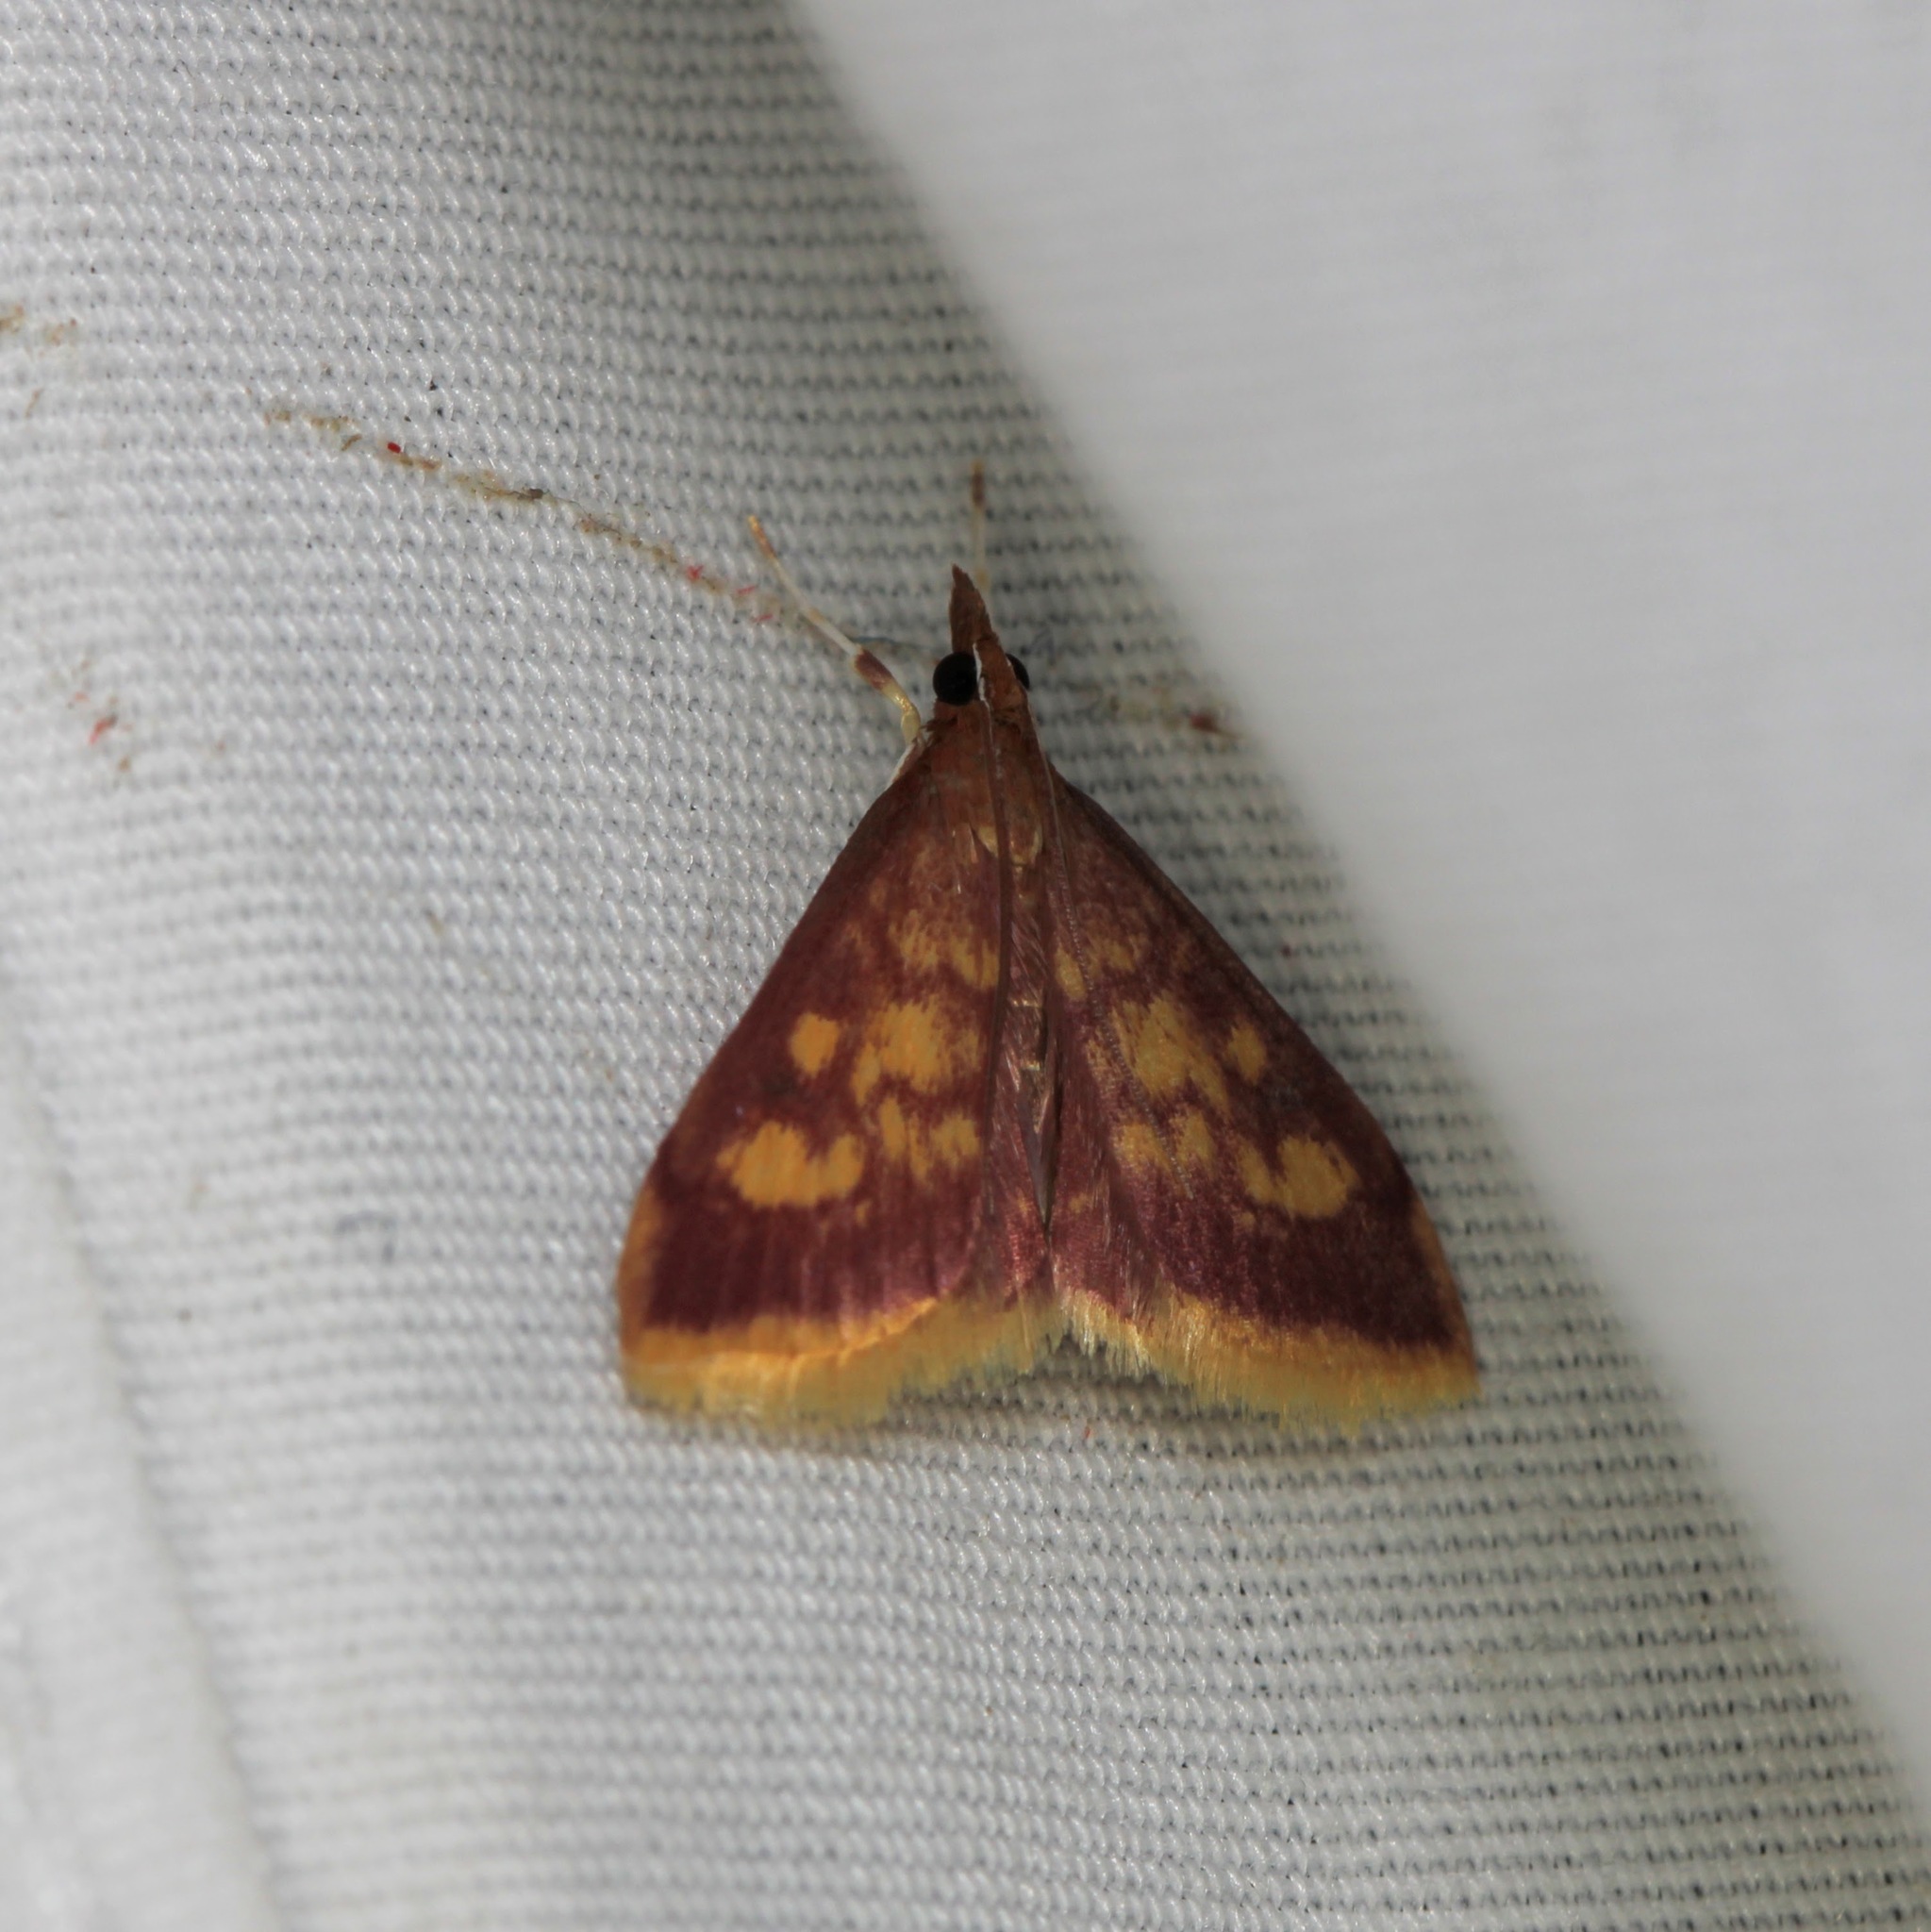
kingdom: Animalia
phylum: Arthropoda
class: Insecta
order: Lepidoptera
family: Crambidae
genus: Pyrausta
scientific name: Pyrausta acrionalis
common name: Mint-loving pyrausta moth
